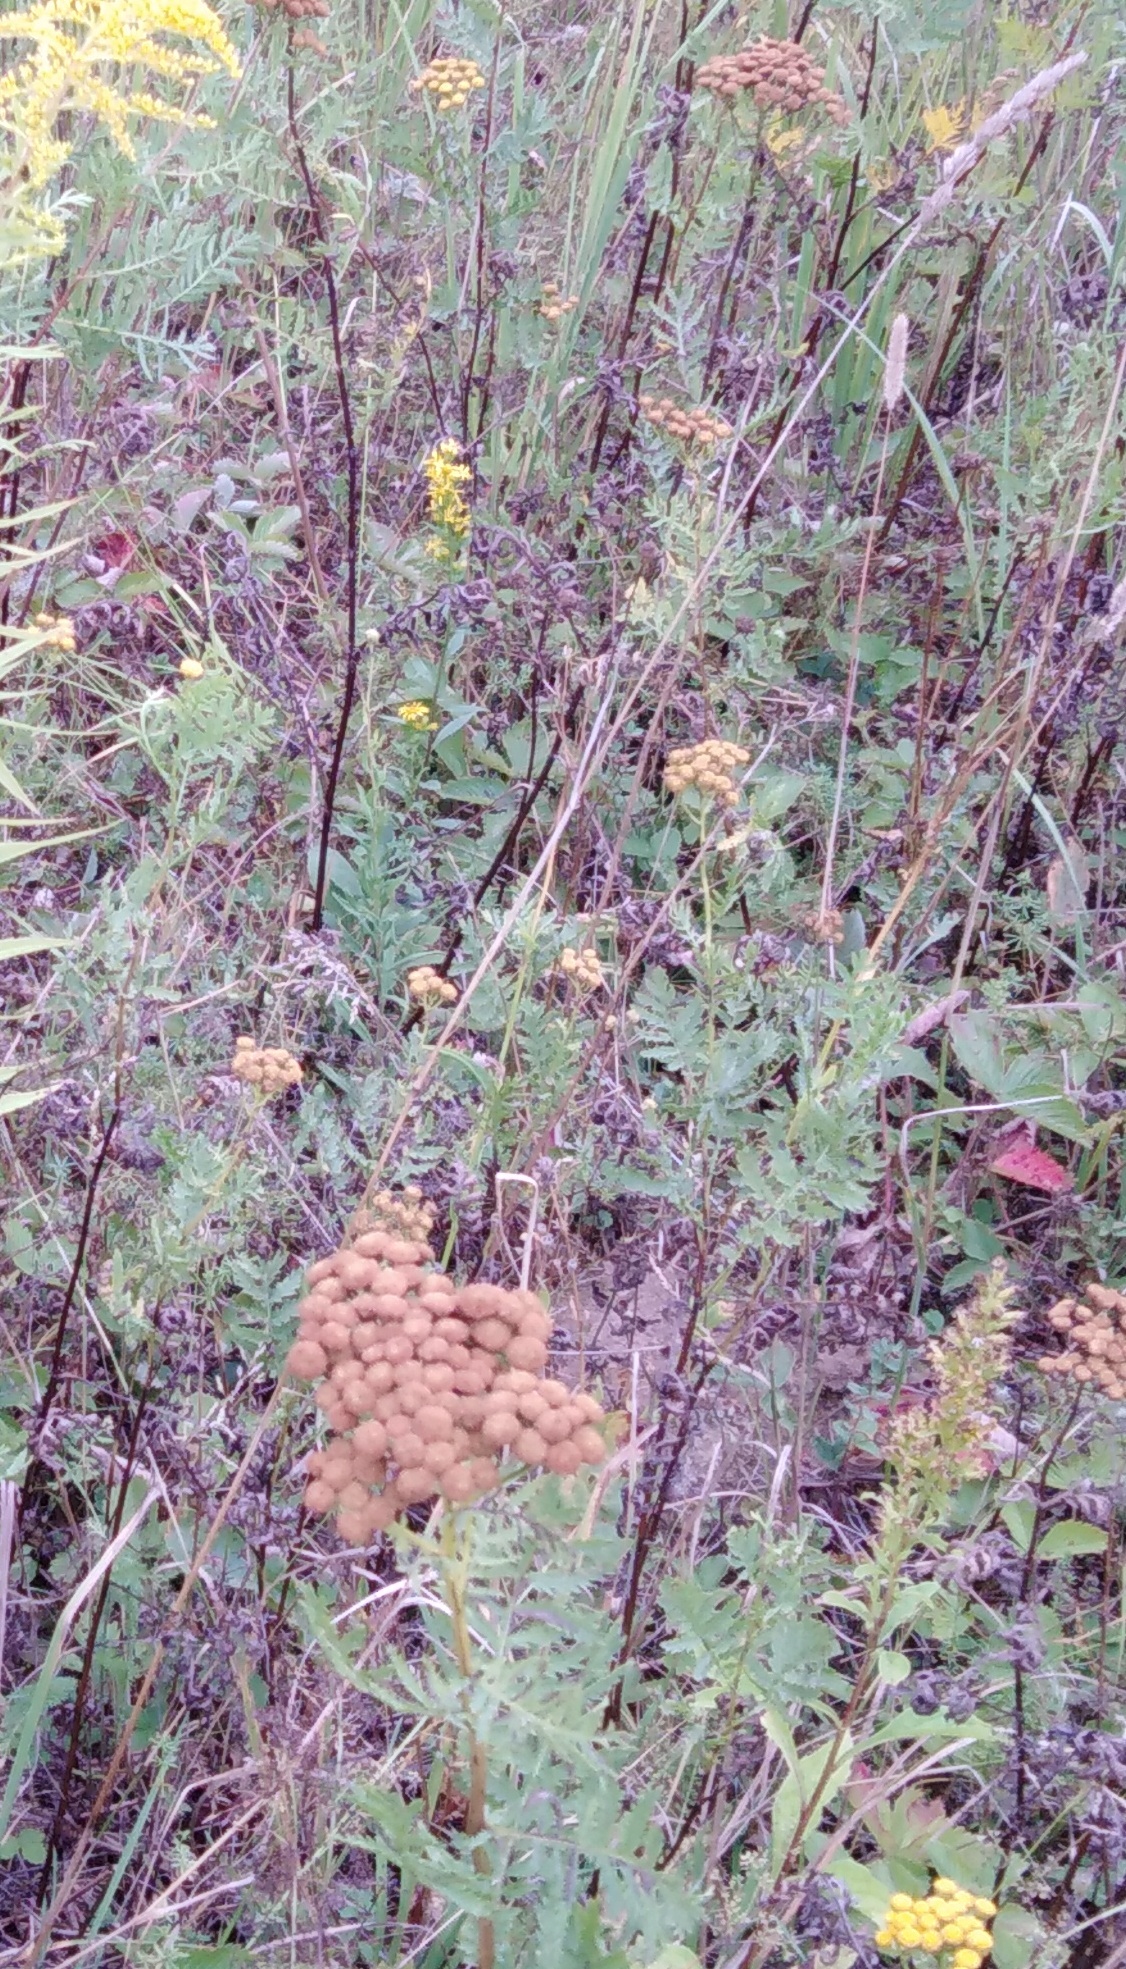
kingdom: Plantae
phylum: Tracheophyta
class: Magnoliopsida
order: Asterales
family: Asteraceae
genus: Tanacetum
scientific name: Tanacetum vulgare
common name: Common tansy
